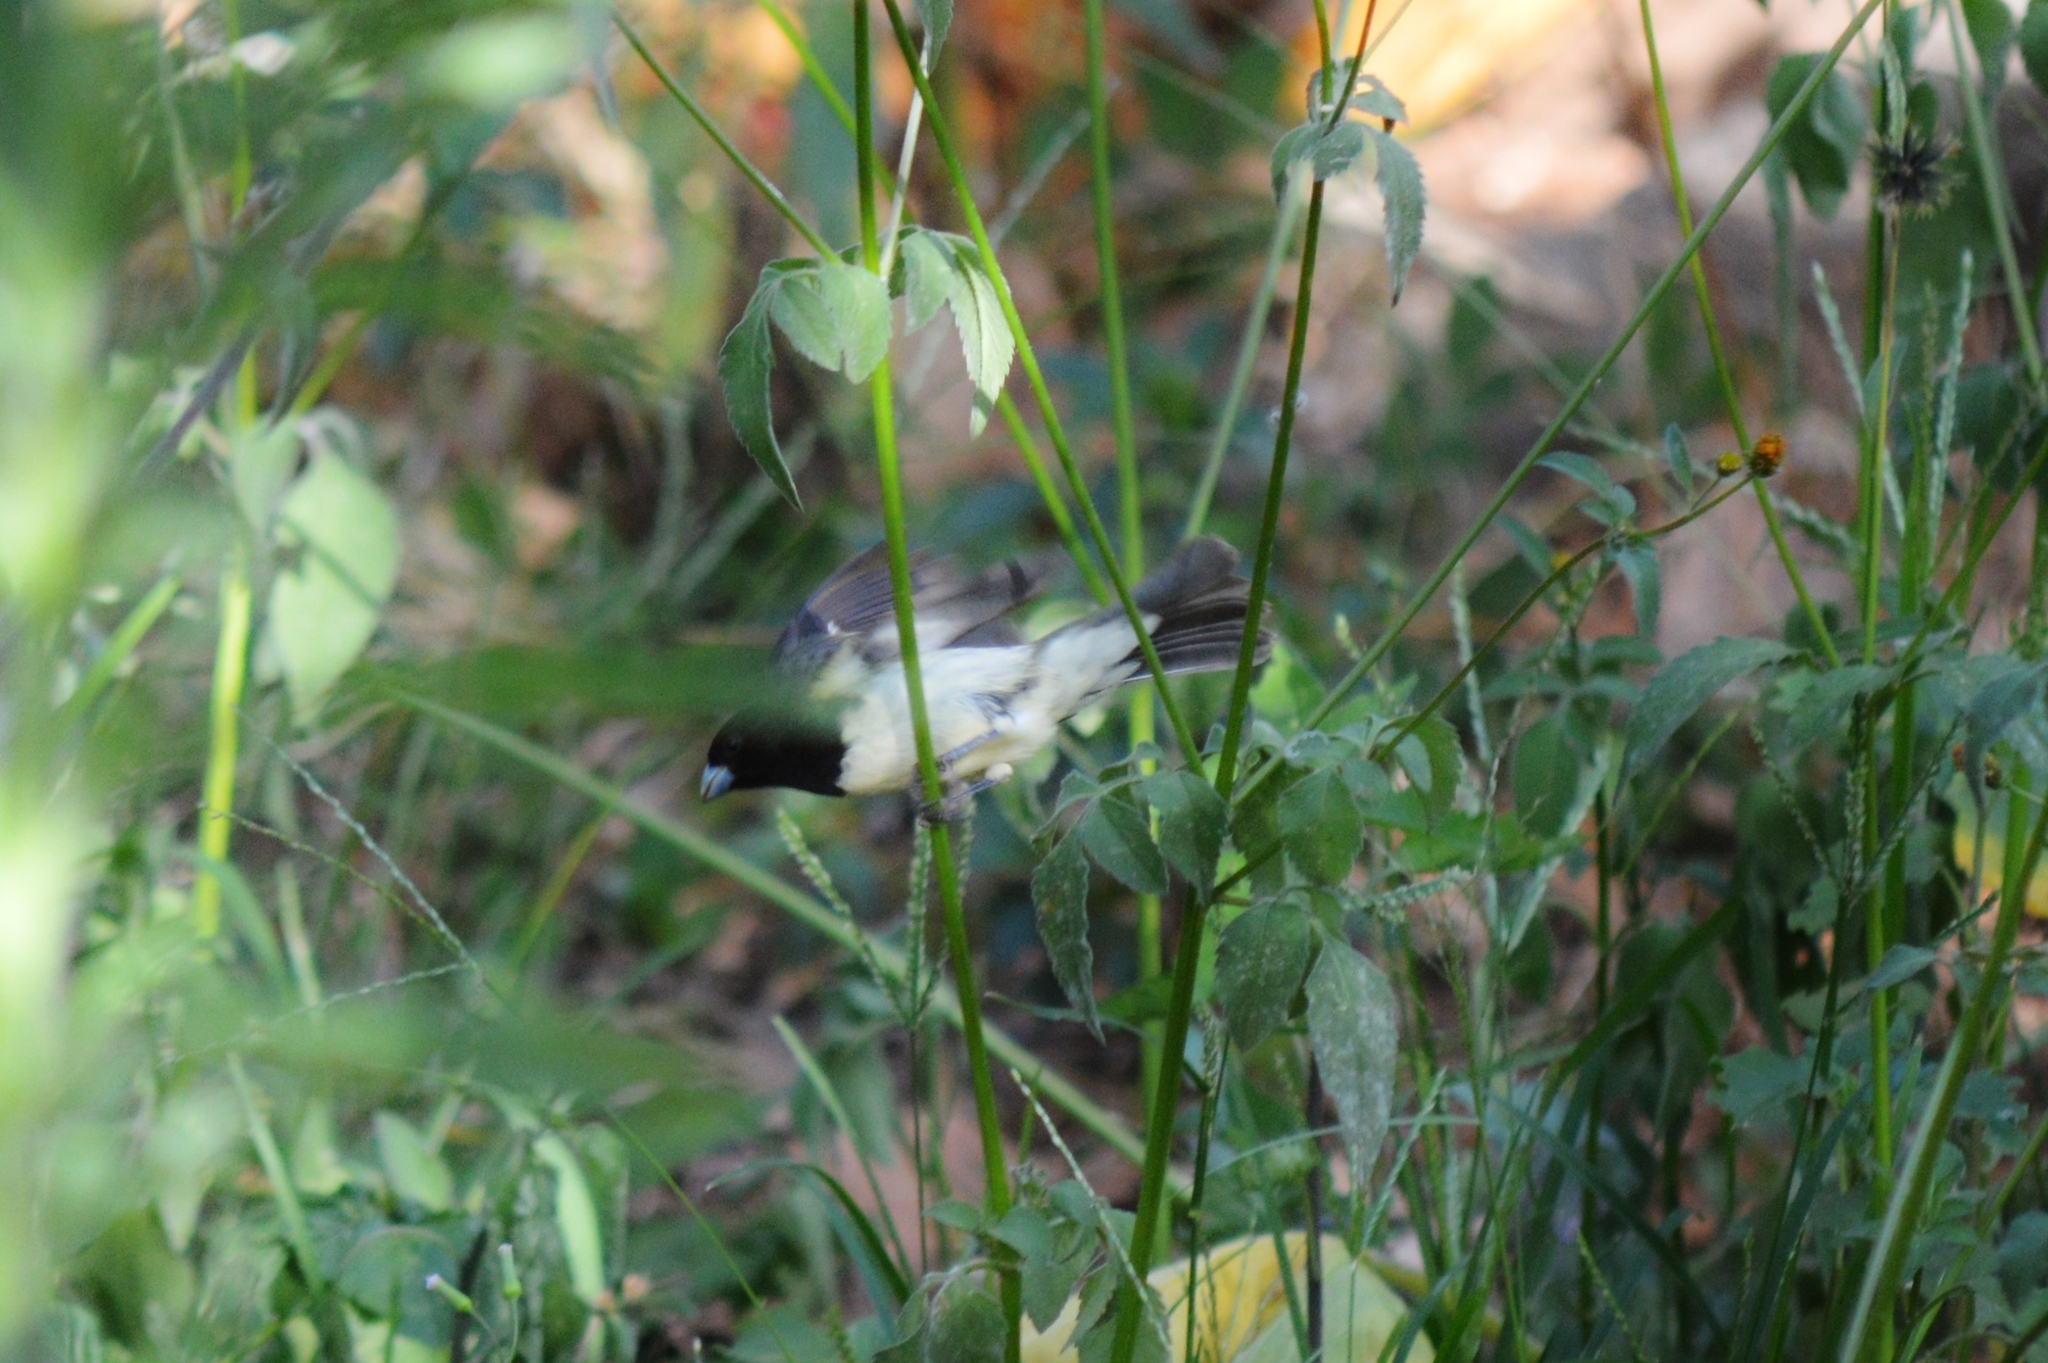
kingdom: Animalia
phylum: Chordata
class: Aves
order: Passeriformes
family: Thraupidae
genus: Sporophila
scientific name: Sporophila nigricollis
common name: Yellow-bellied seedeater
